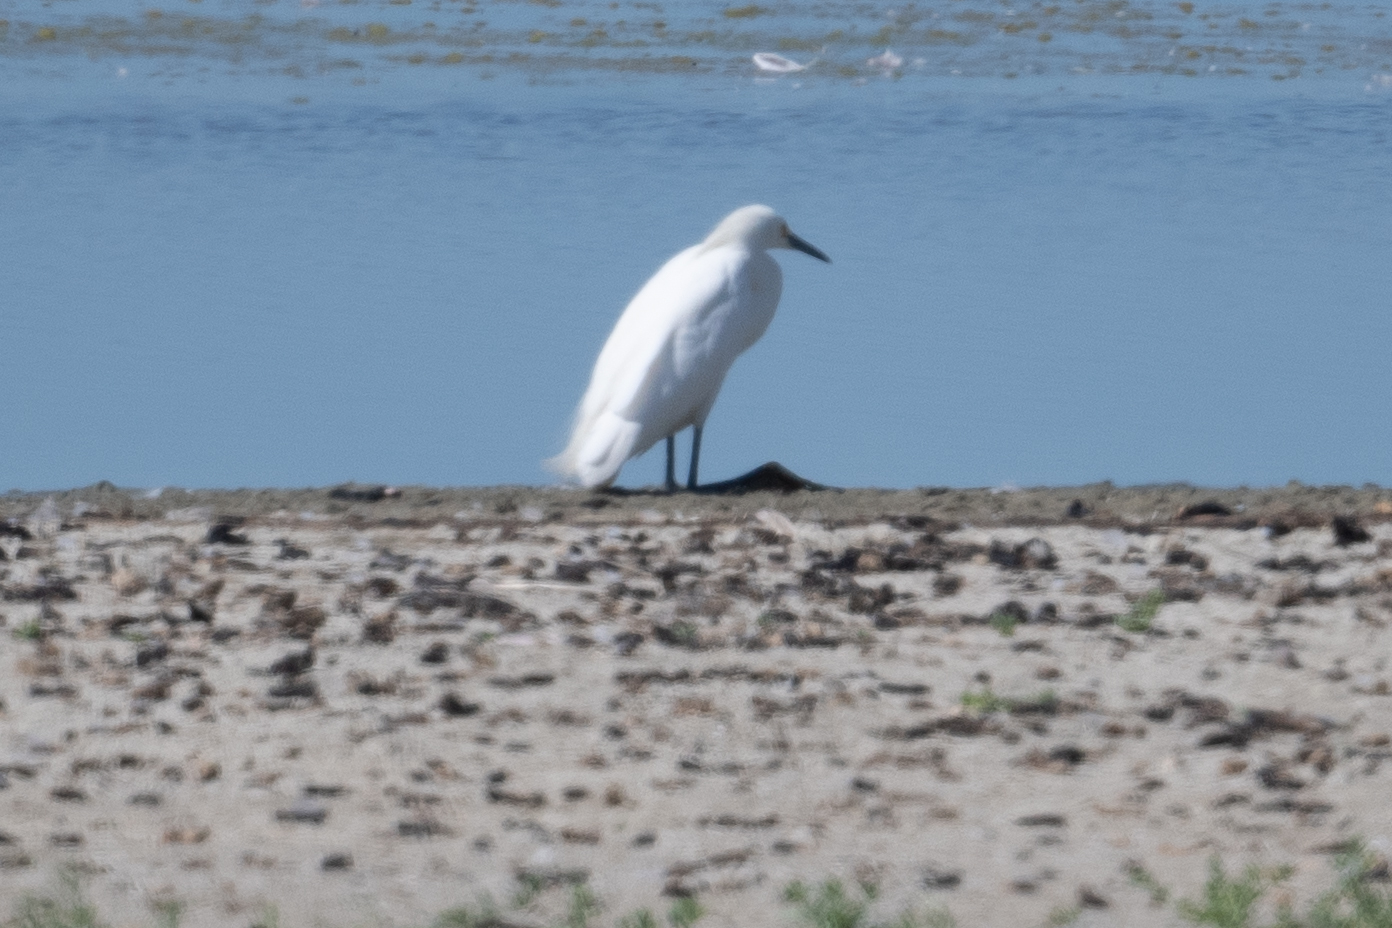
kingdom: Animalia
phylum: Chordata
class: Aves
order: Pelecaniformes
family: Ardeidae
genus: Egretta
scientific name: Egretta thula
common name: Snowy egret
